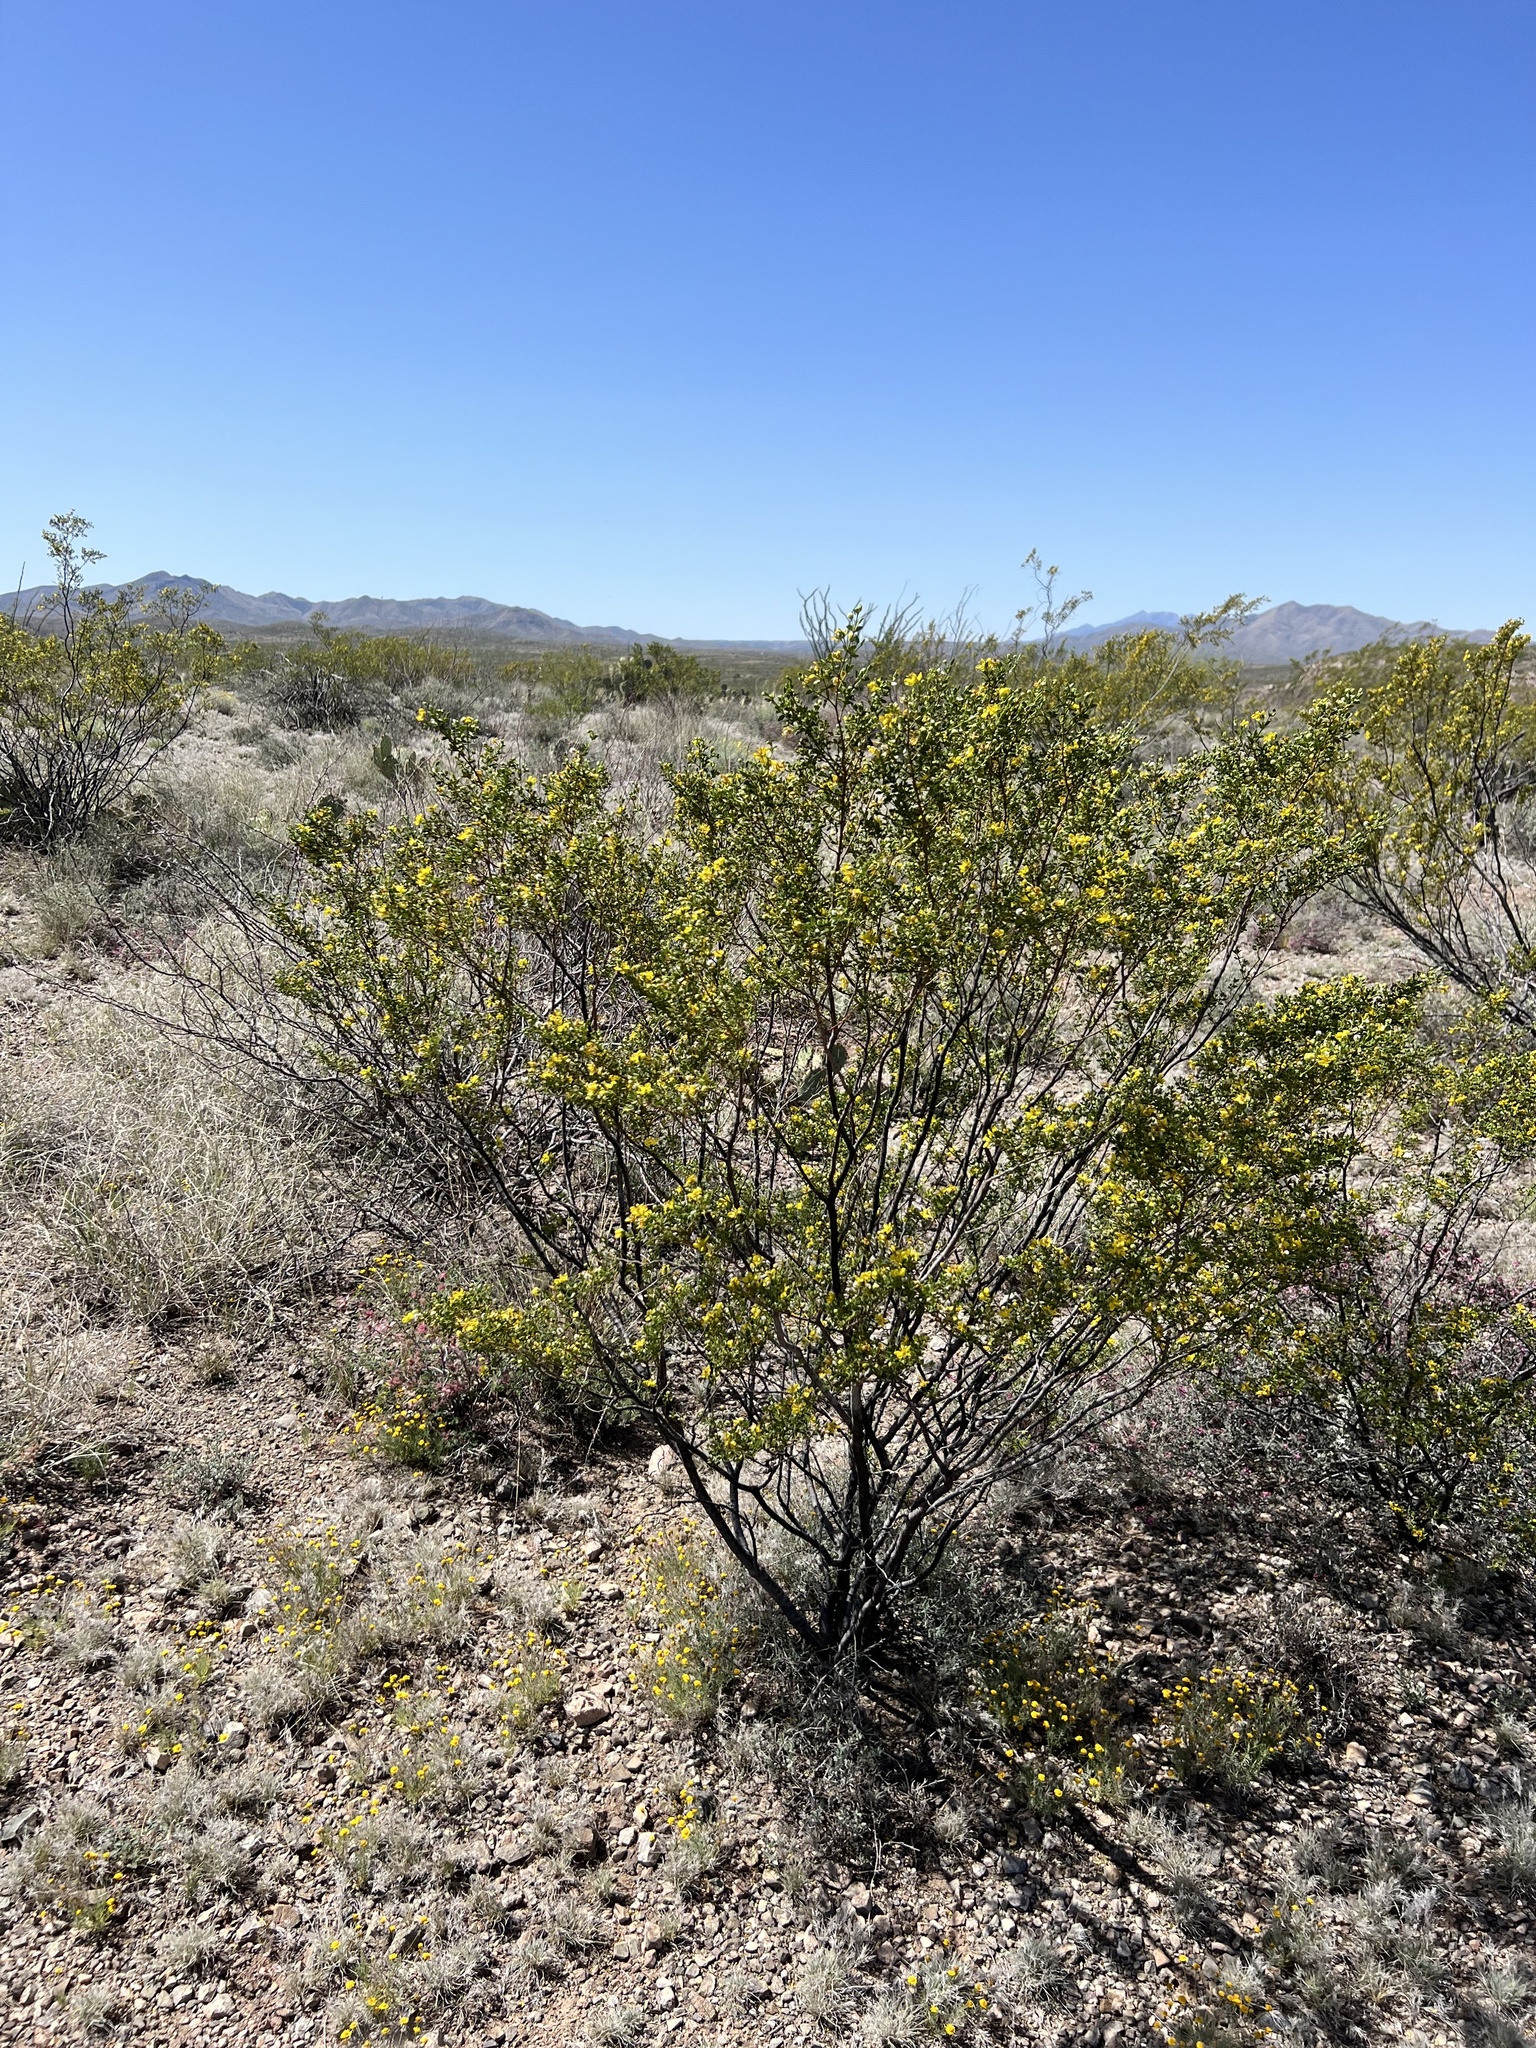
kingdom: Plantae
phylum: Tracheophyta
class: Magnoliopsida
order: Zygophyllales
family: Zygophyllaceae
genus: Larrea
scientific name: Larrea tridentata
